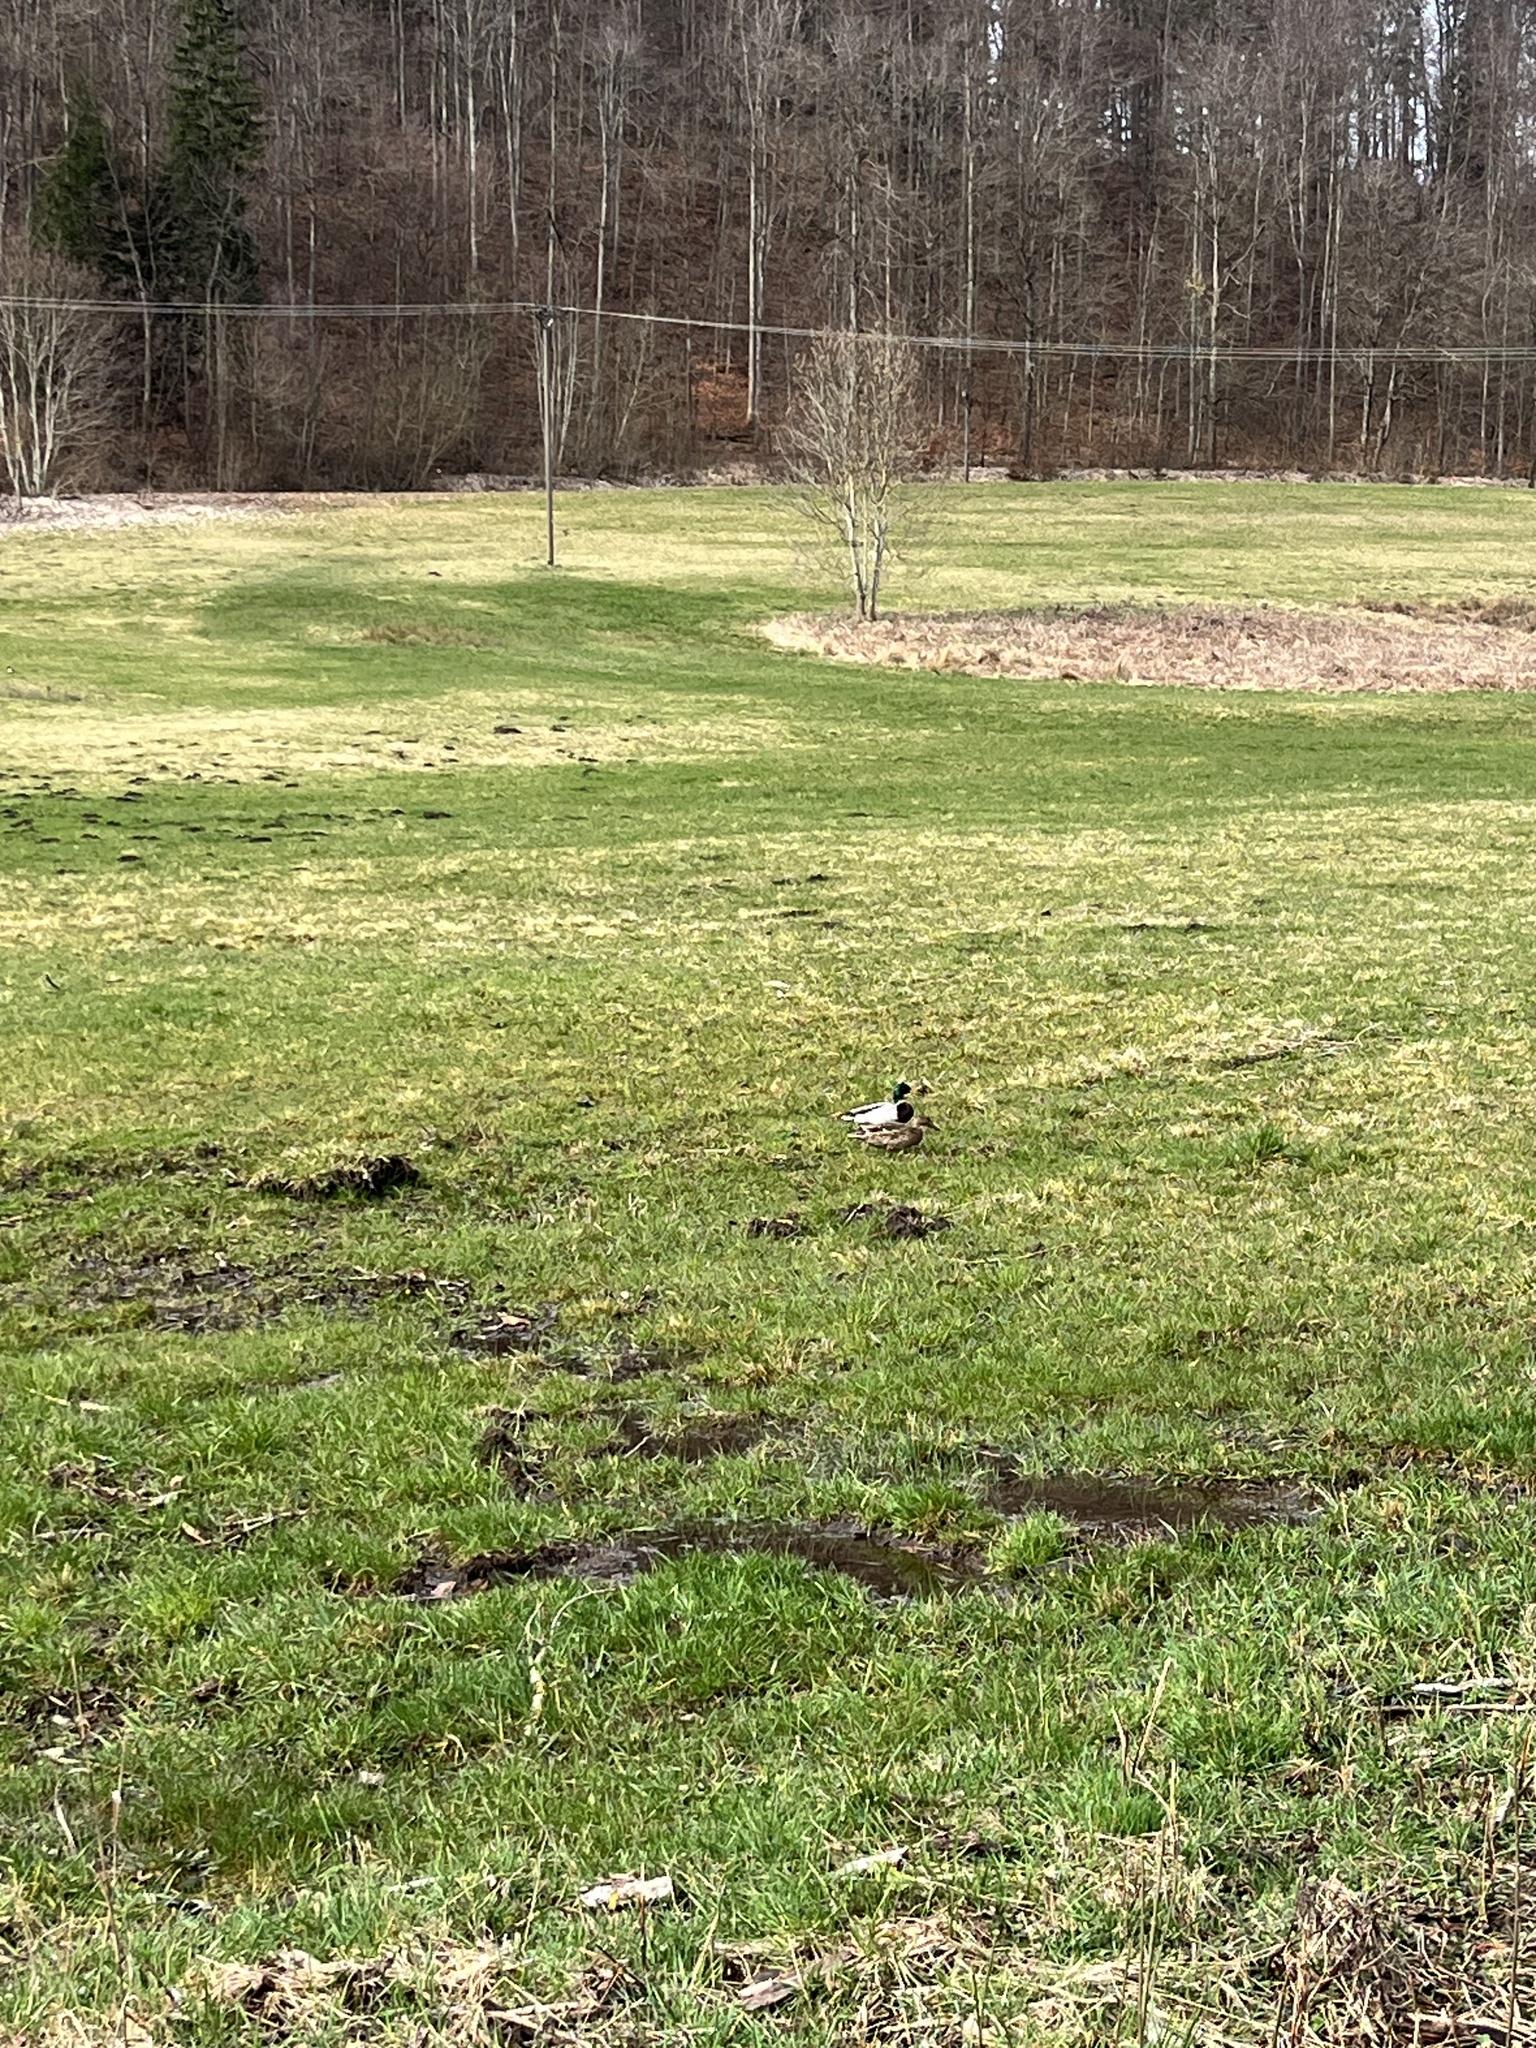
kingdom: Animalia
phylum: Chordata
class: Aves
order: Anseriformes
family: Anatidae
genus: Anas
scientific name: Anas platyrhynchos
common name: Mallard
